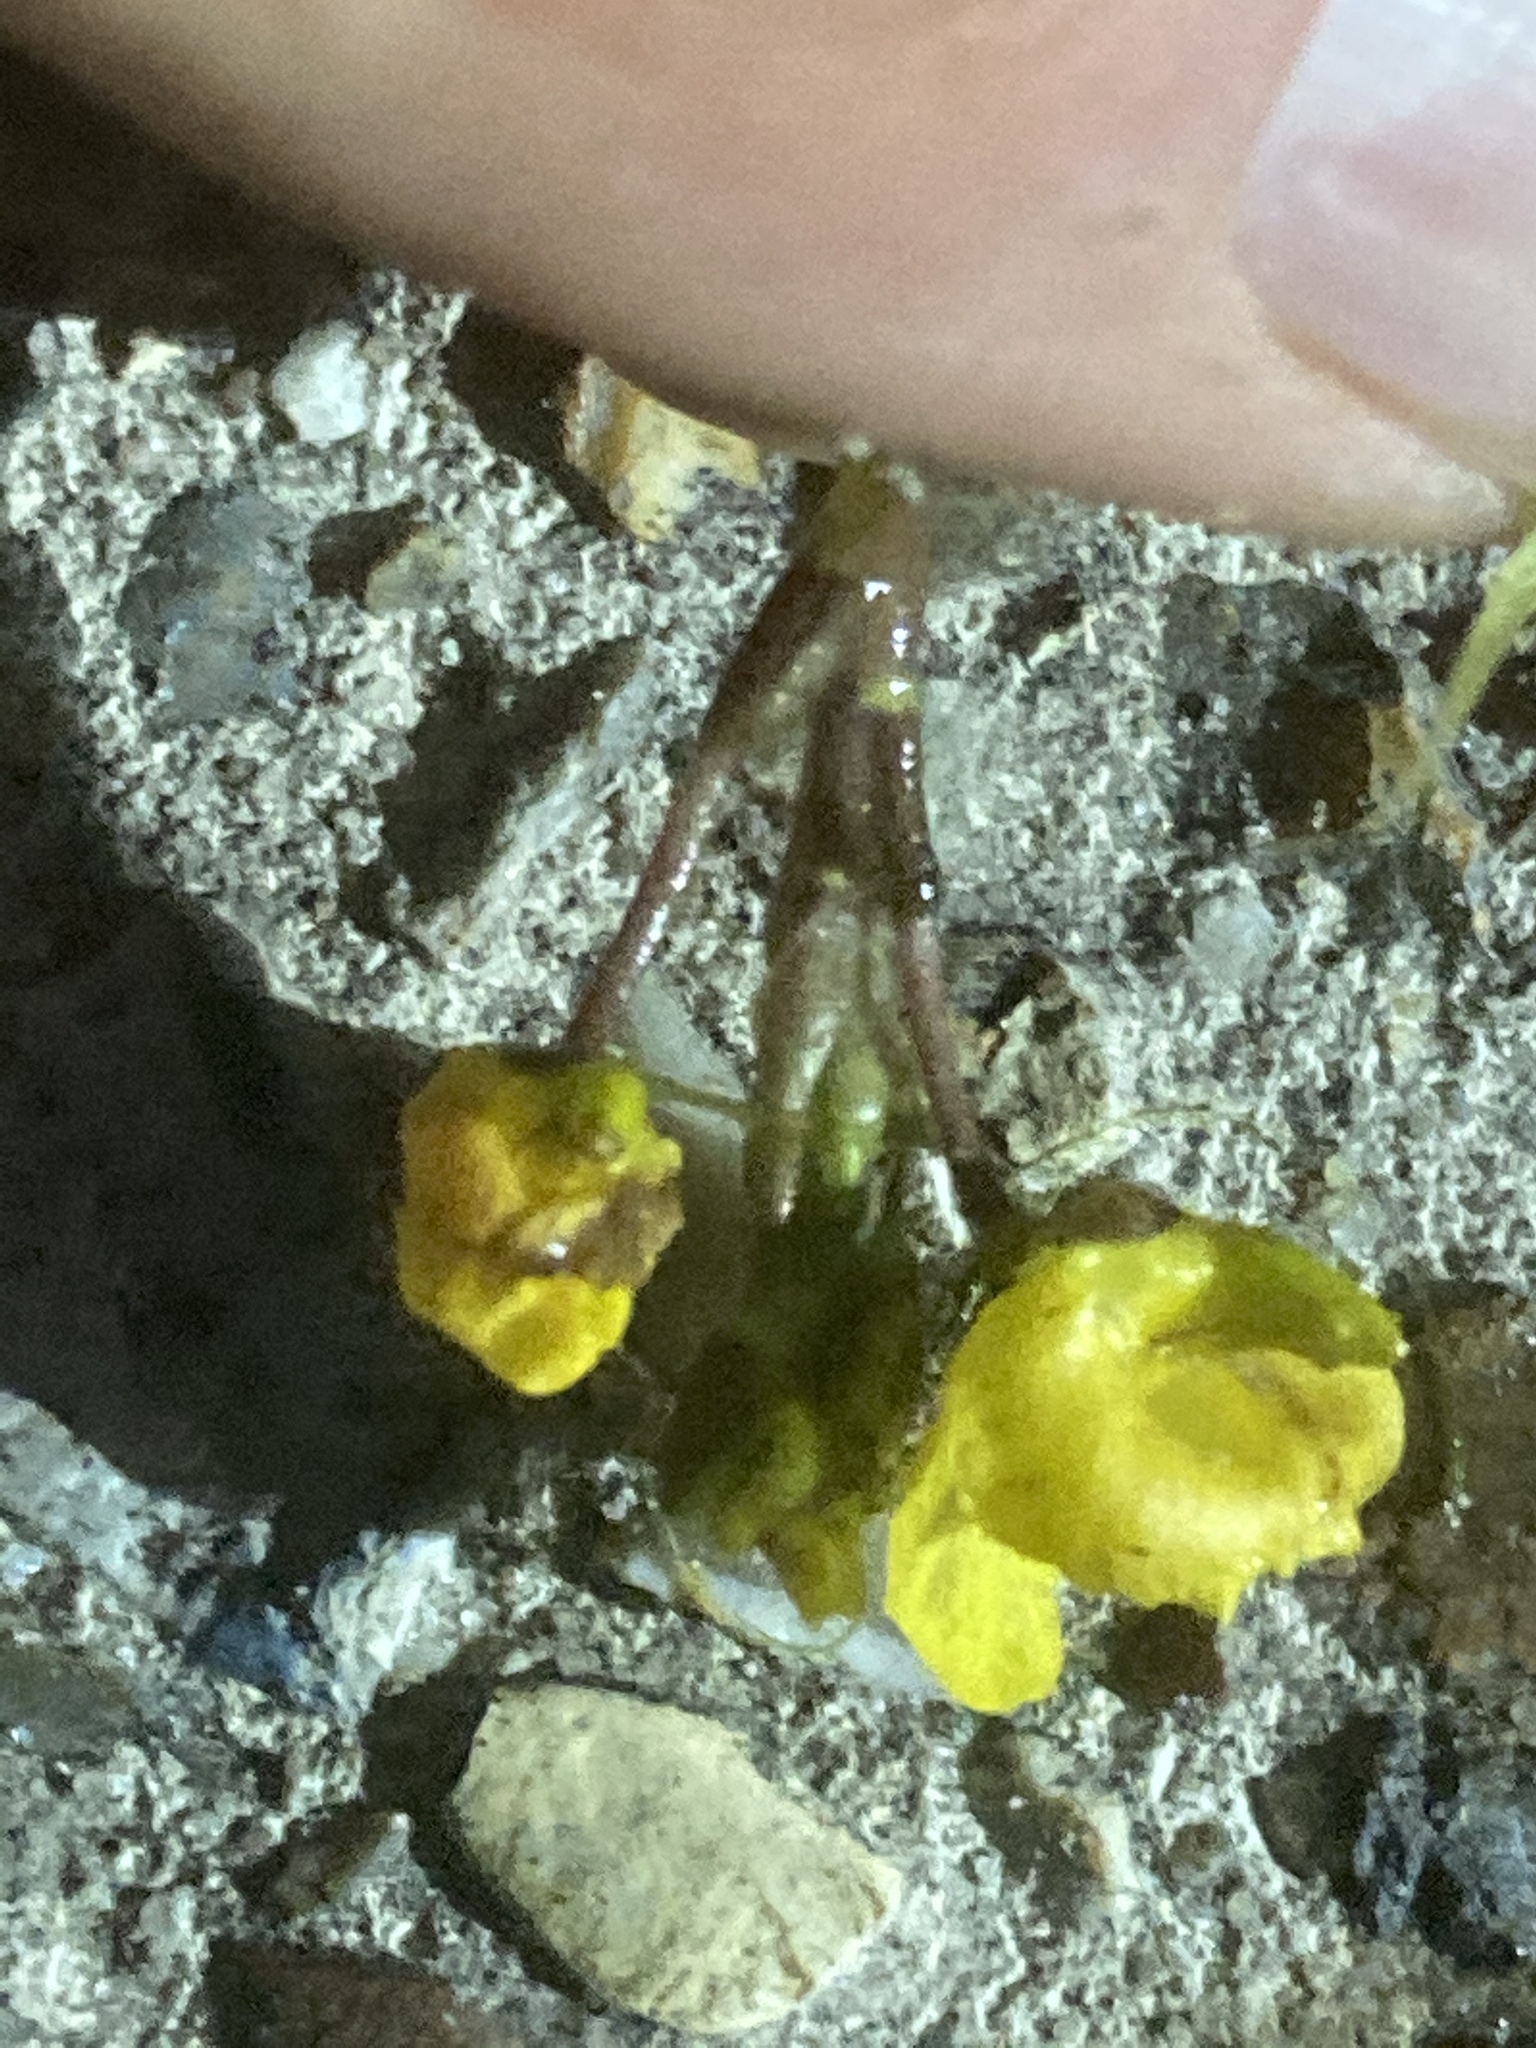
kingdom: Plantae
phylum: Tracheophyta
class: Magnoliopsida
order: Lamiales
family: Lentibulariaceae
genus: Utricularia
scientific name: Utricularia australis
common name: Bladderwort
